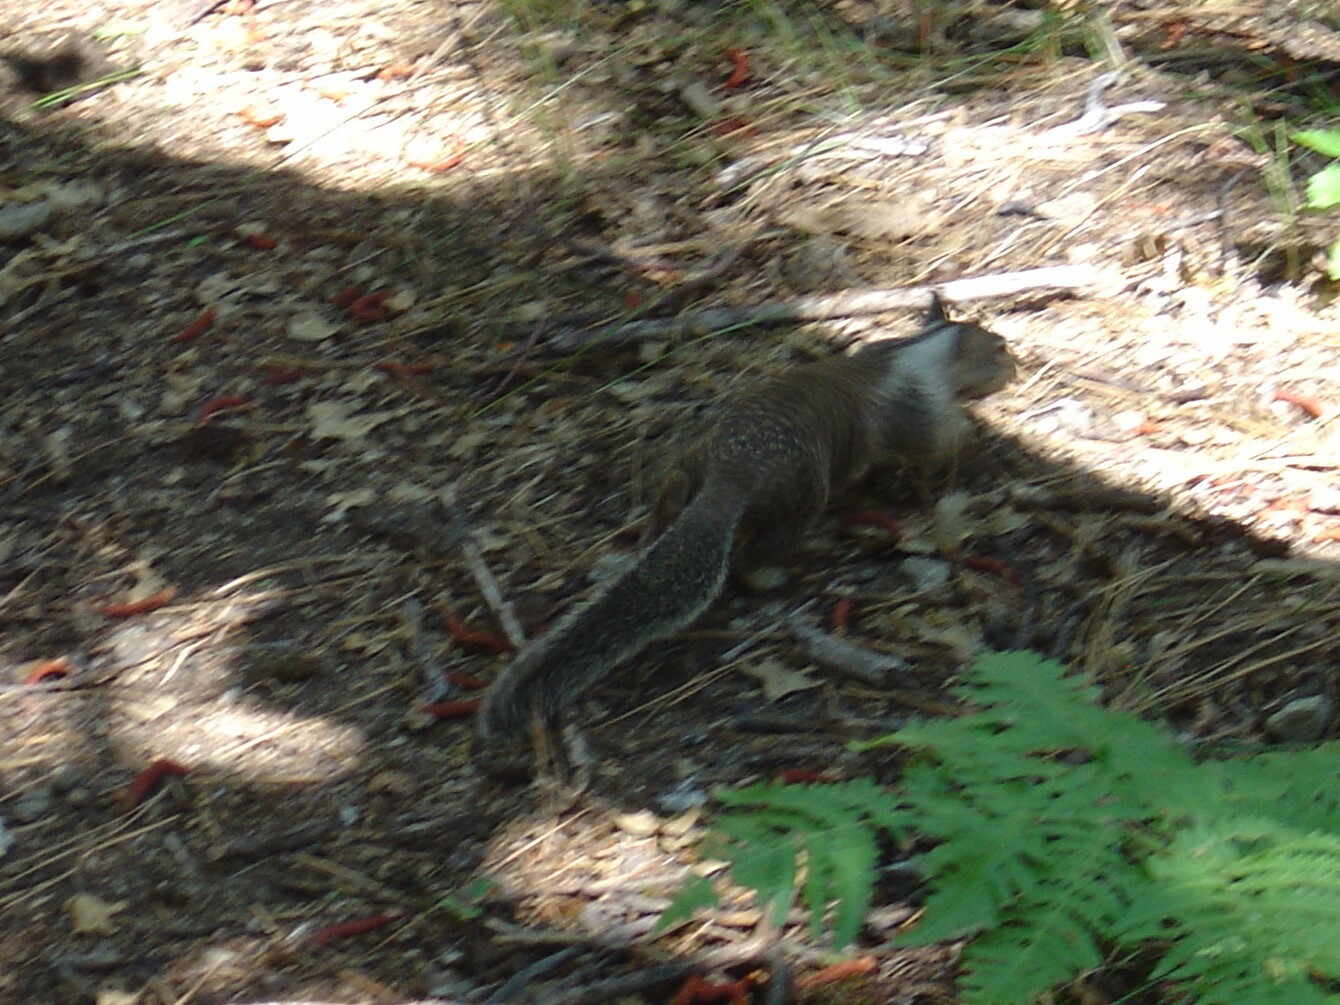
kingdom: Animalia
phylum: Chordata
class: Mammalia
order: Rodentia
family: Sciuridae
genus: Otospermophilus
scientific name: Otospermophilus beecheyi
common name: California ground squirrel
